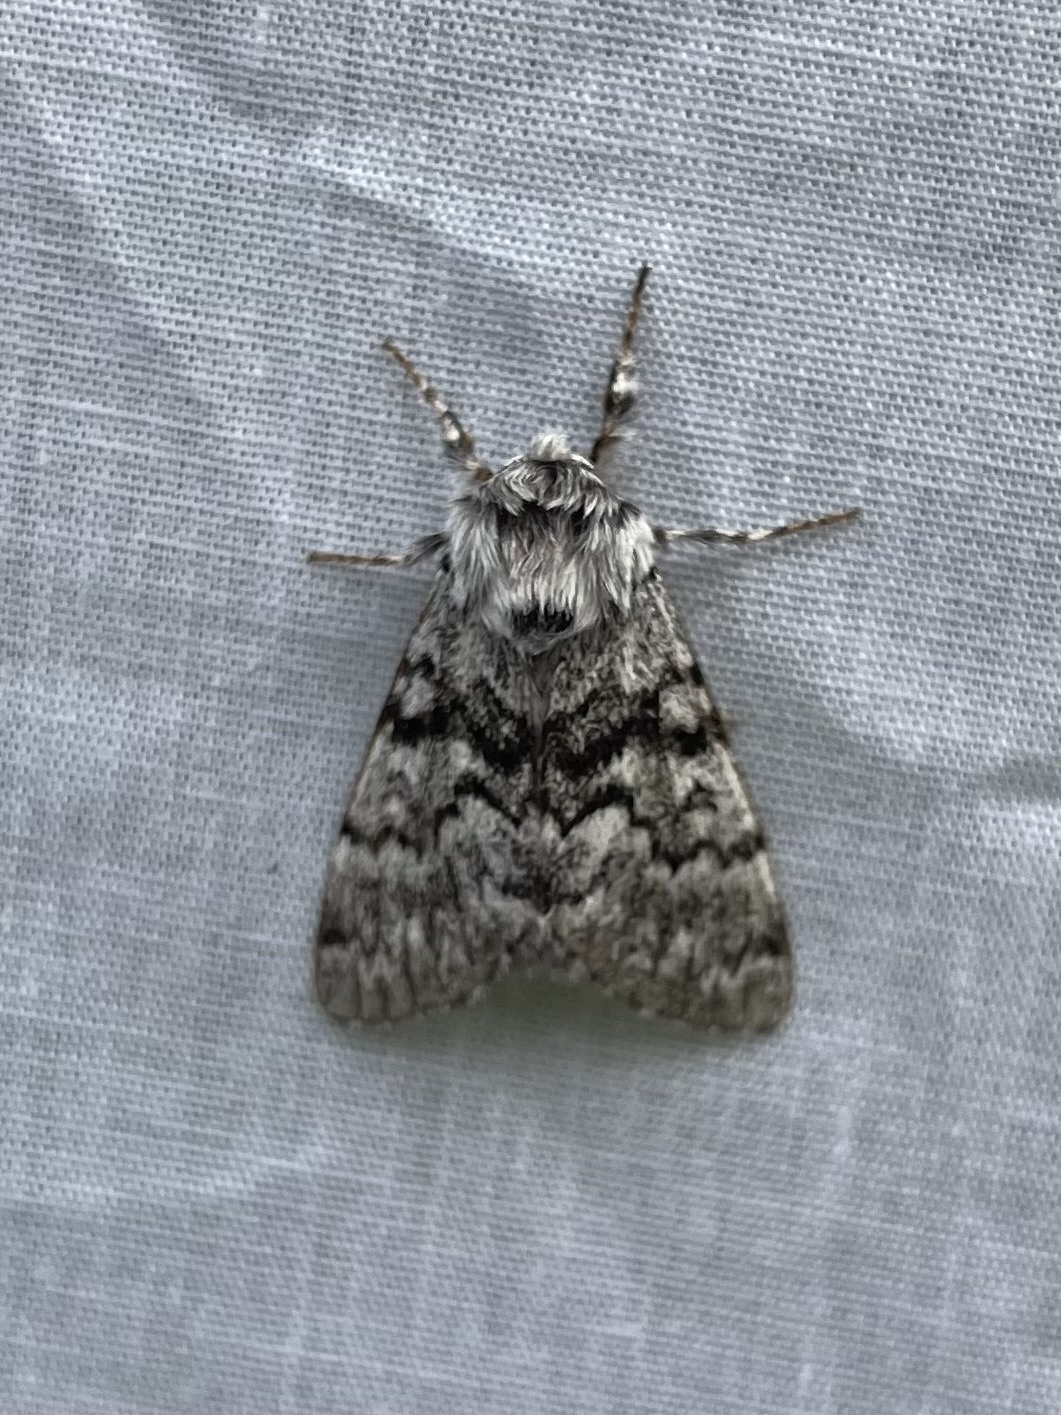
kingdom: Animalia
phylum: Arthropoda
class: Insecta
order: Lepidoptera
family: Noctuidae
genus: Panthea
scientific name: Panthea virginarius
